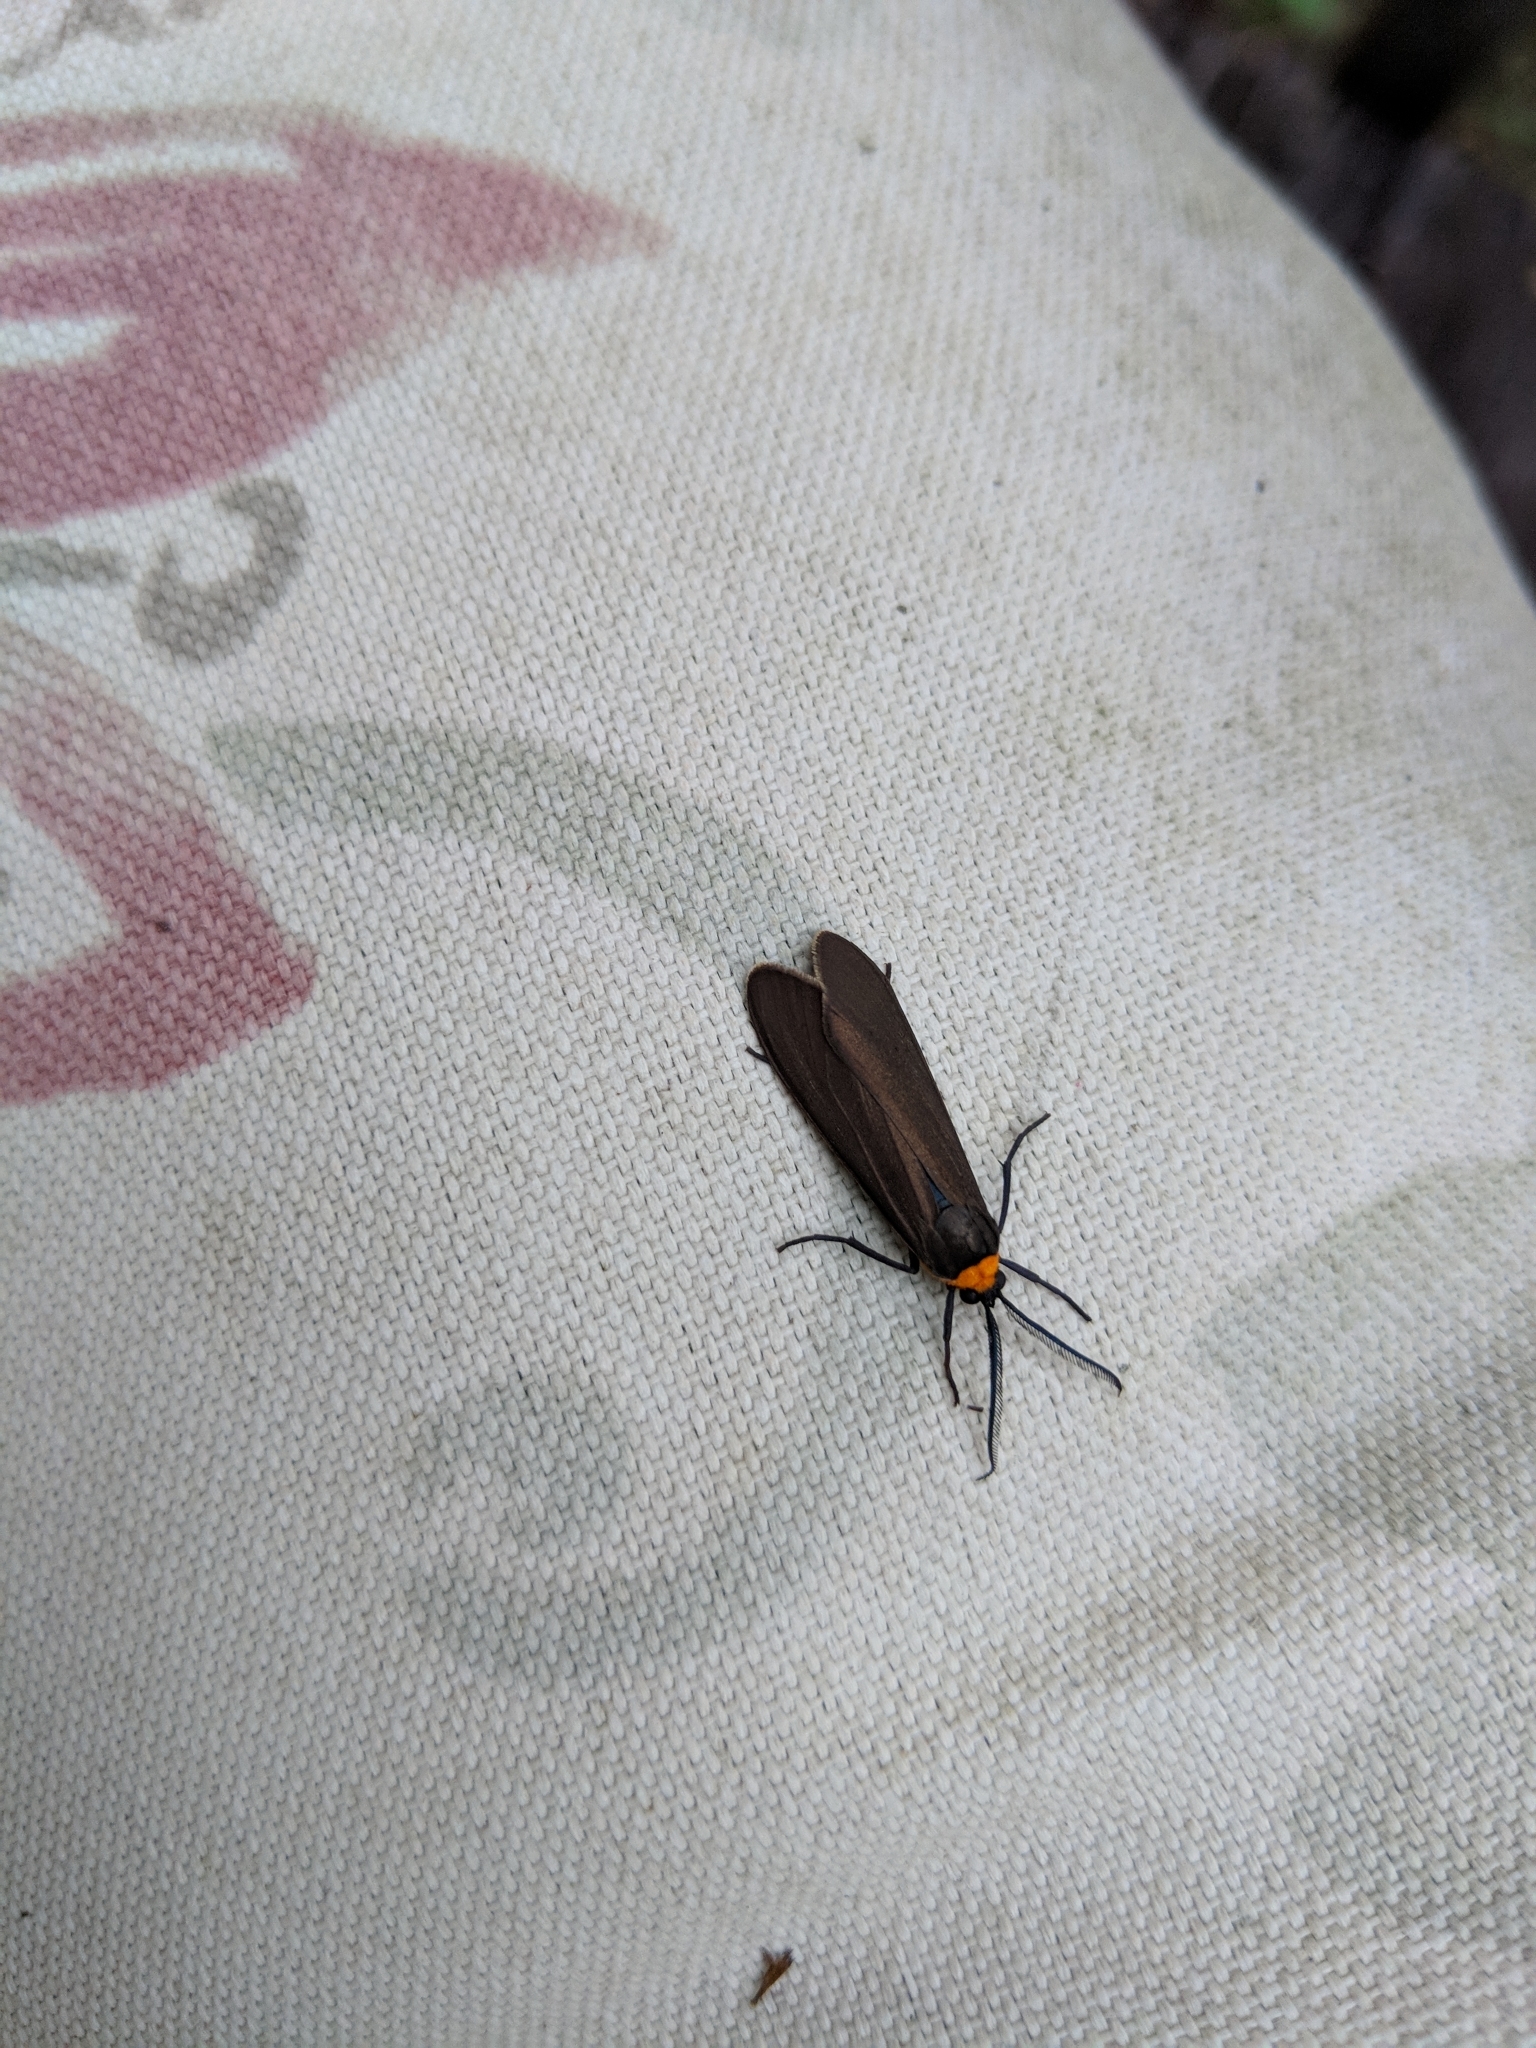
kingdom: Animalia
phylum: Arthropoda
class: Insecta
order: Lepidoptera
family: Erebidae
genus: Cisseps
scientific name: Cisseps fulvicollis
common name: Yellow-collared scape moth
